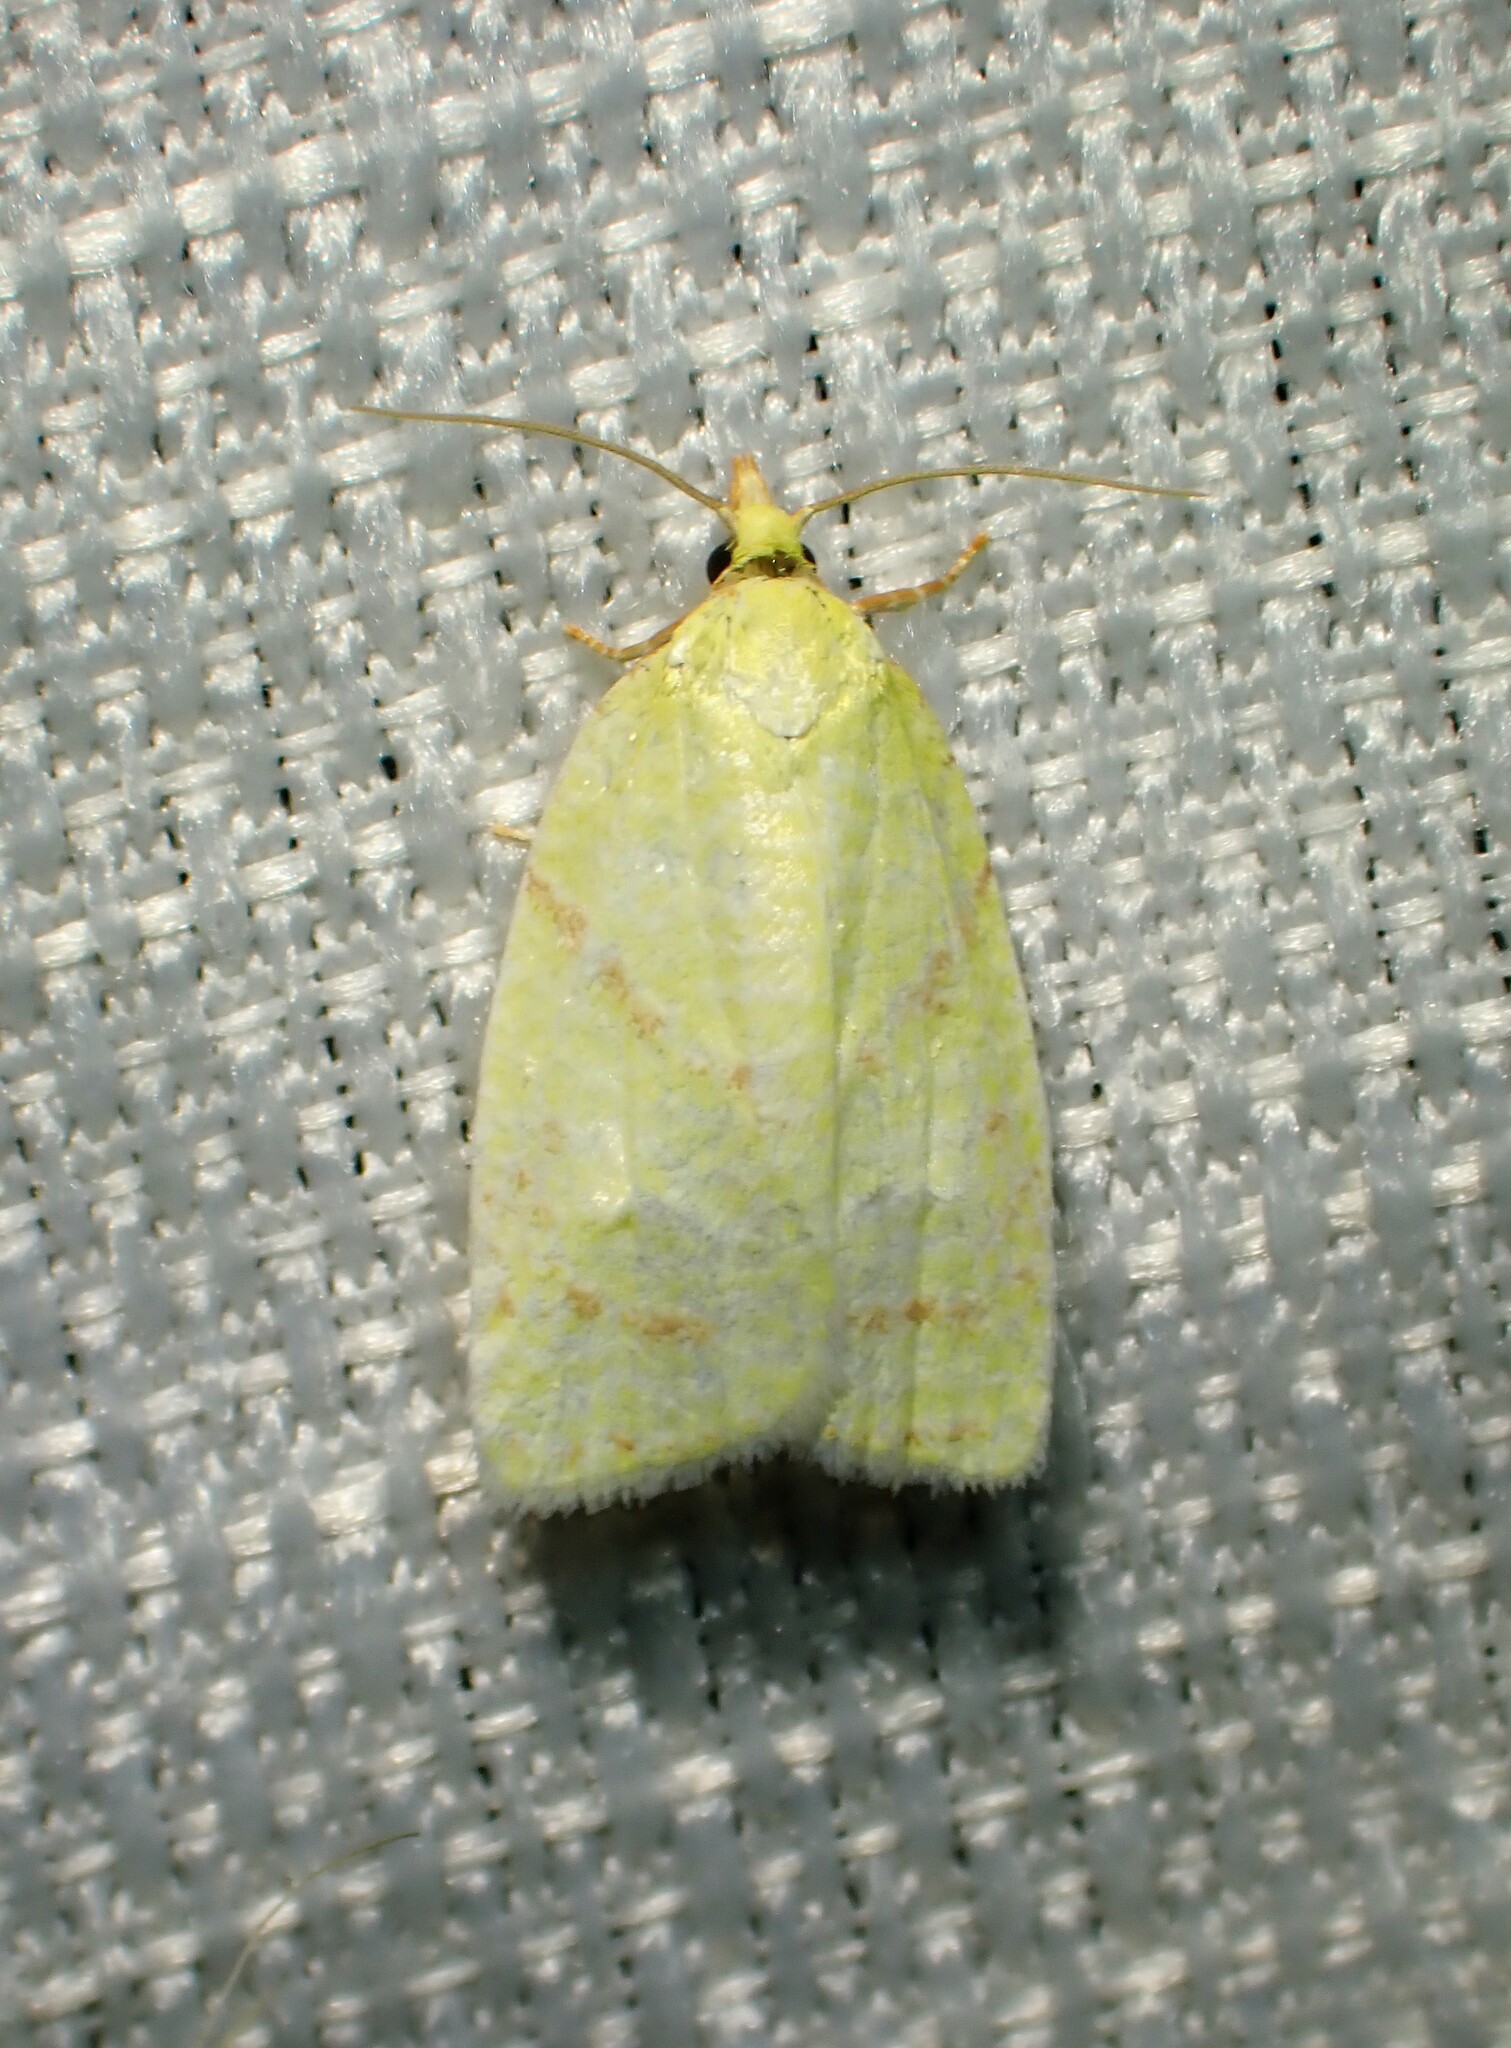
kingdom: Animalia
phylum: Arthropoda
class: Insecta
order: Lepidoptera
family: Tortricidae
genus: Cenopis
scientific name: Cenopis pettitana
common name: Maple-basswood leafroller moth
